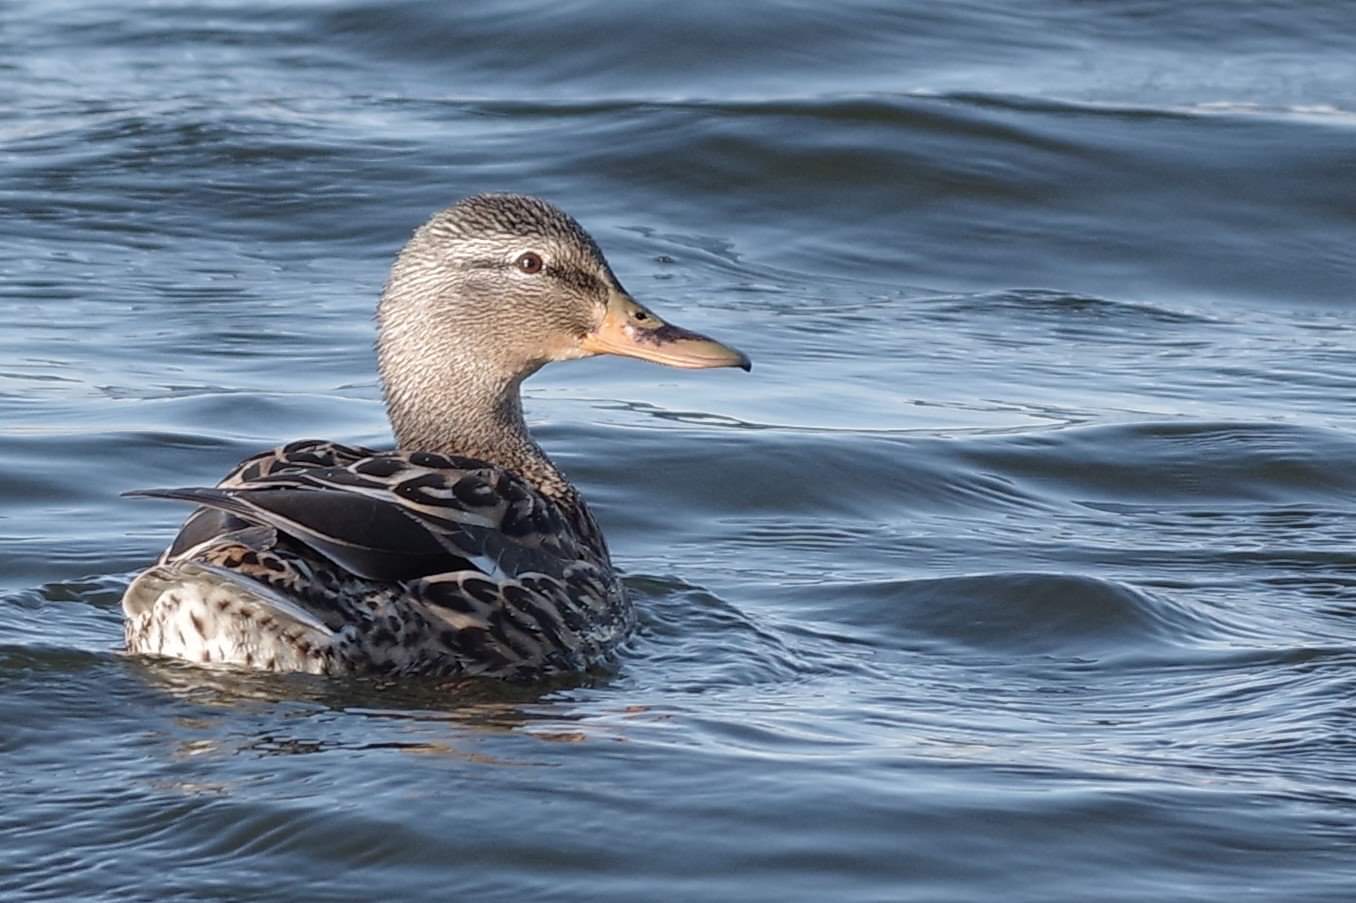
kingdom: Animalia
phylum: Chordata
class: Aves
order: Anseriformes
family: Anatidae
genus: Anas
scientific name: Anas platyrhynchos
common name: Mallard
